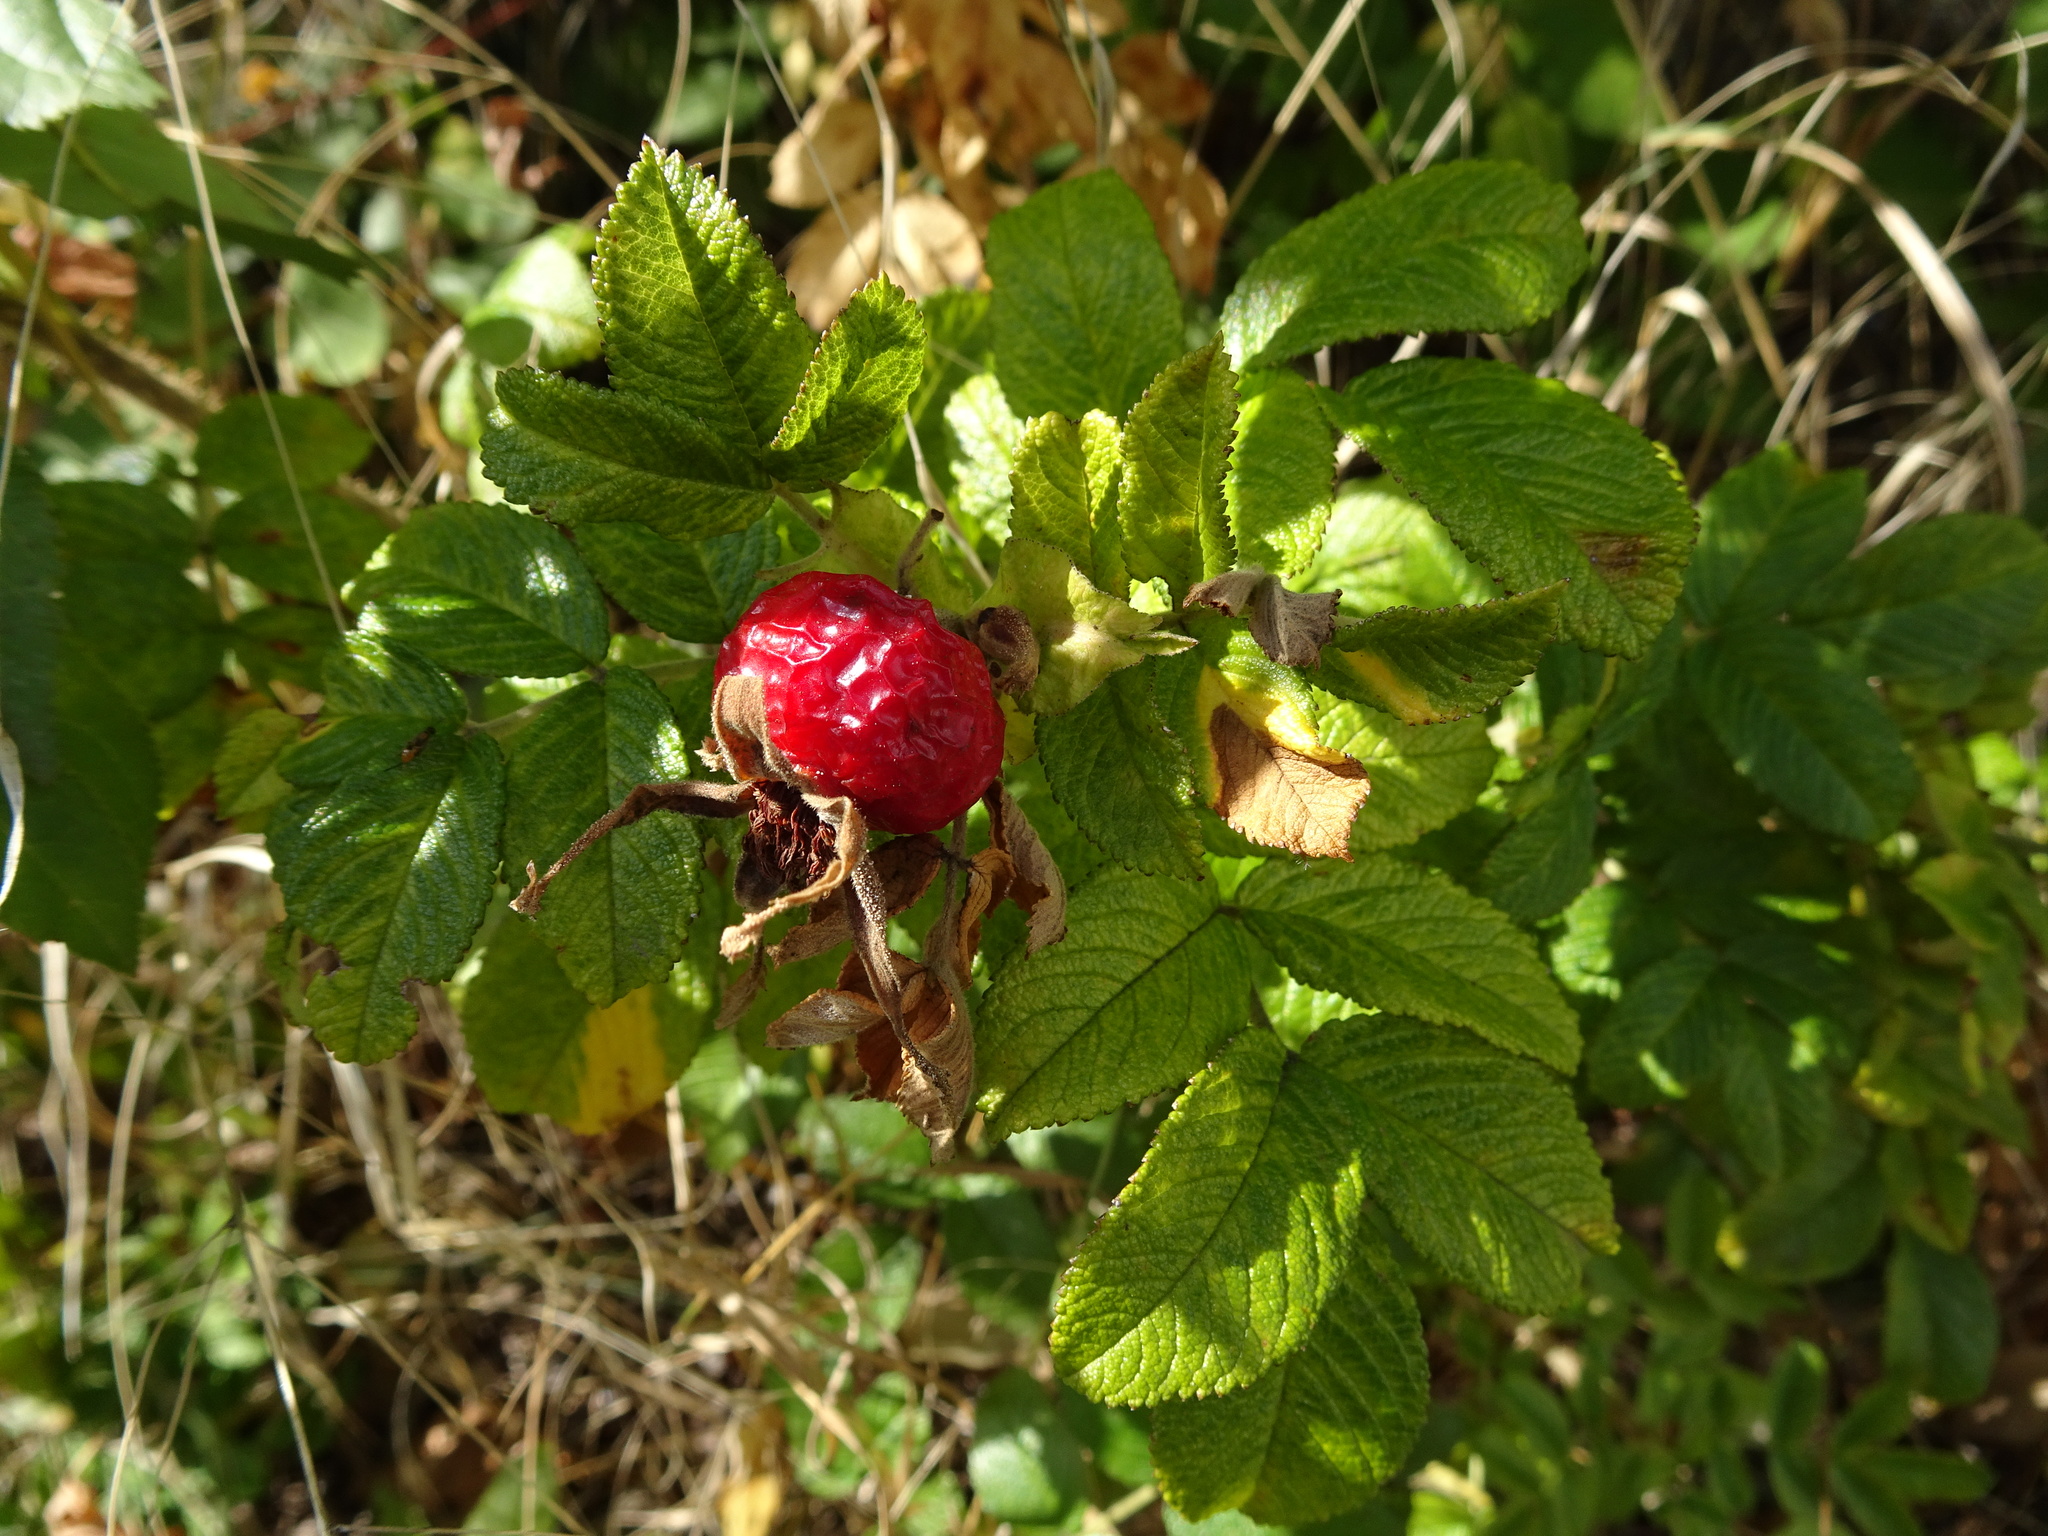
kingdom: Plantae
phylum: Tracheophyta
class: Magnoliopsida
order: Rosales
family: Rosaceae
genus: Rosa
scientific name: Rosa rugosa
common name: Japanese rose
